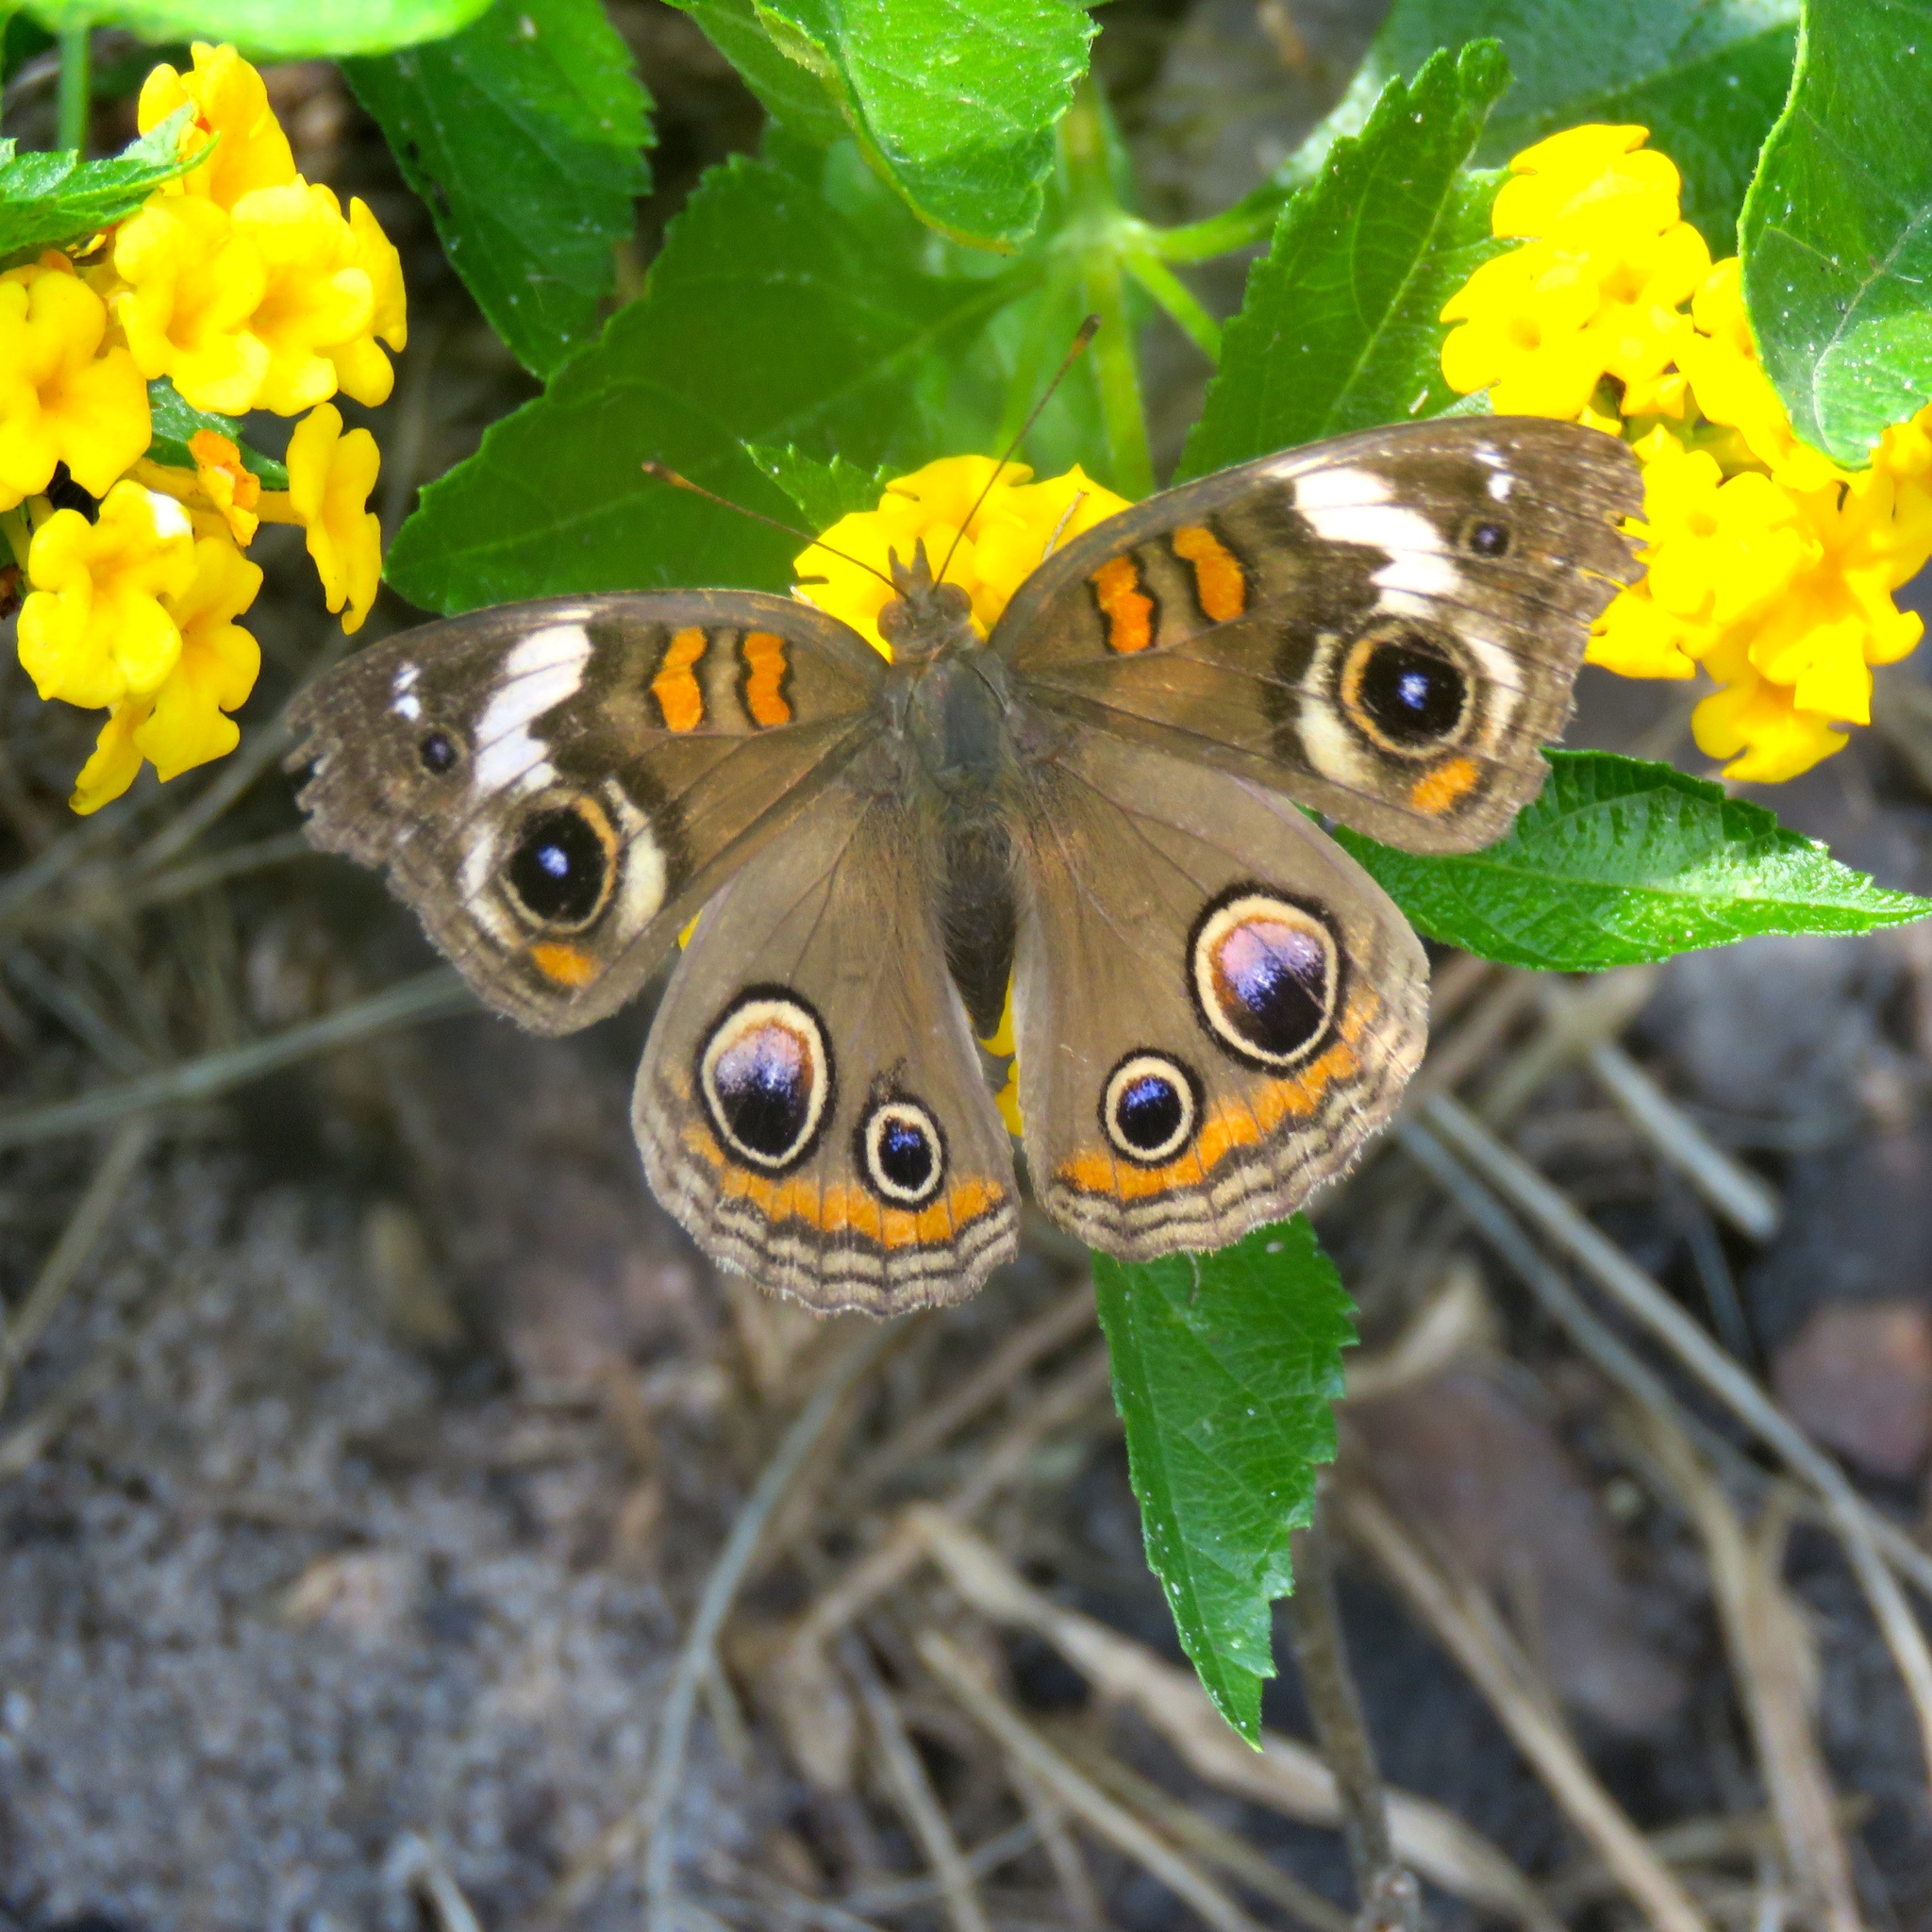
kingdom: Animalia
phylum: Arthropoda
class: Insecta
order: Lepidoptera
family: Nymphalidae
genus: Junonia
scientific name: Junonia coenia
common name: Common buckeye
